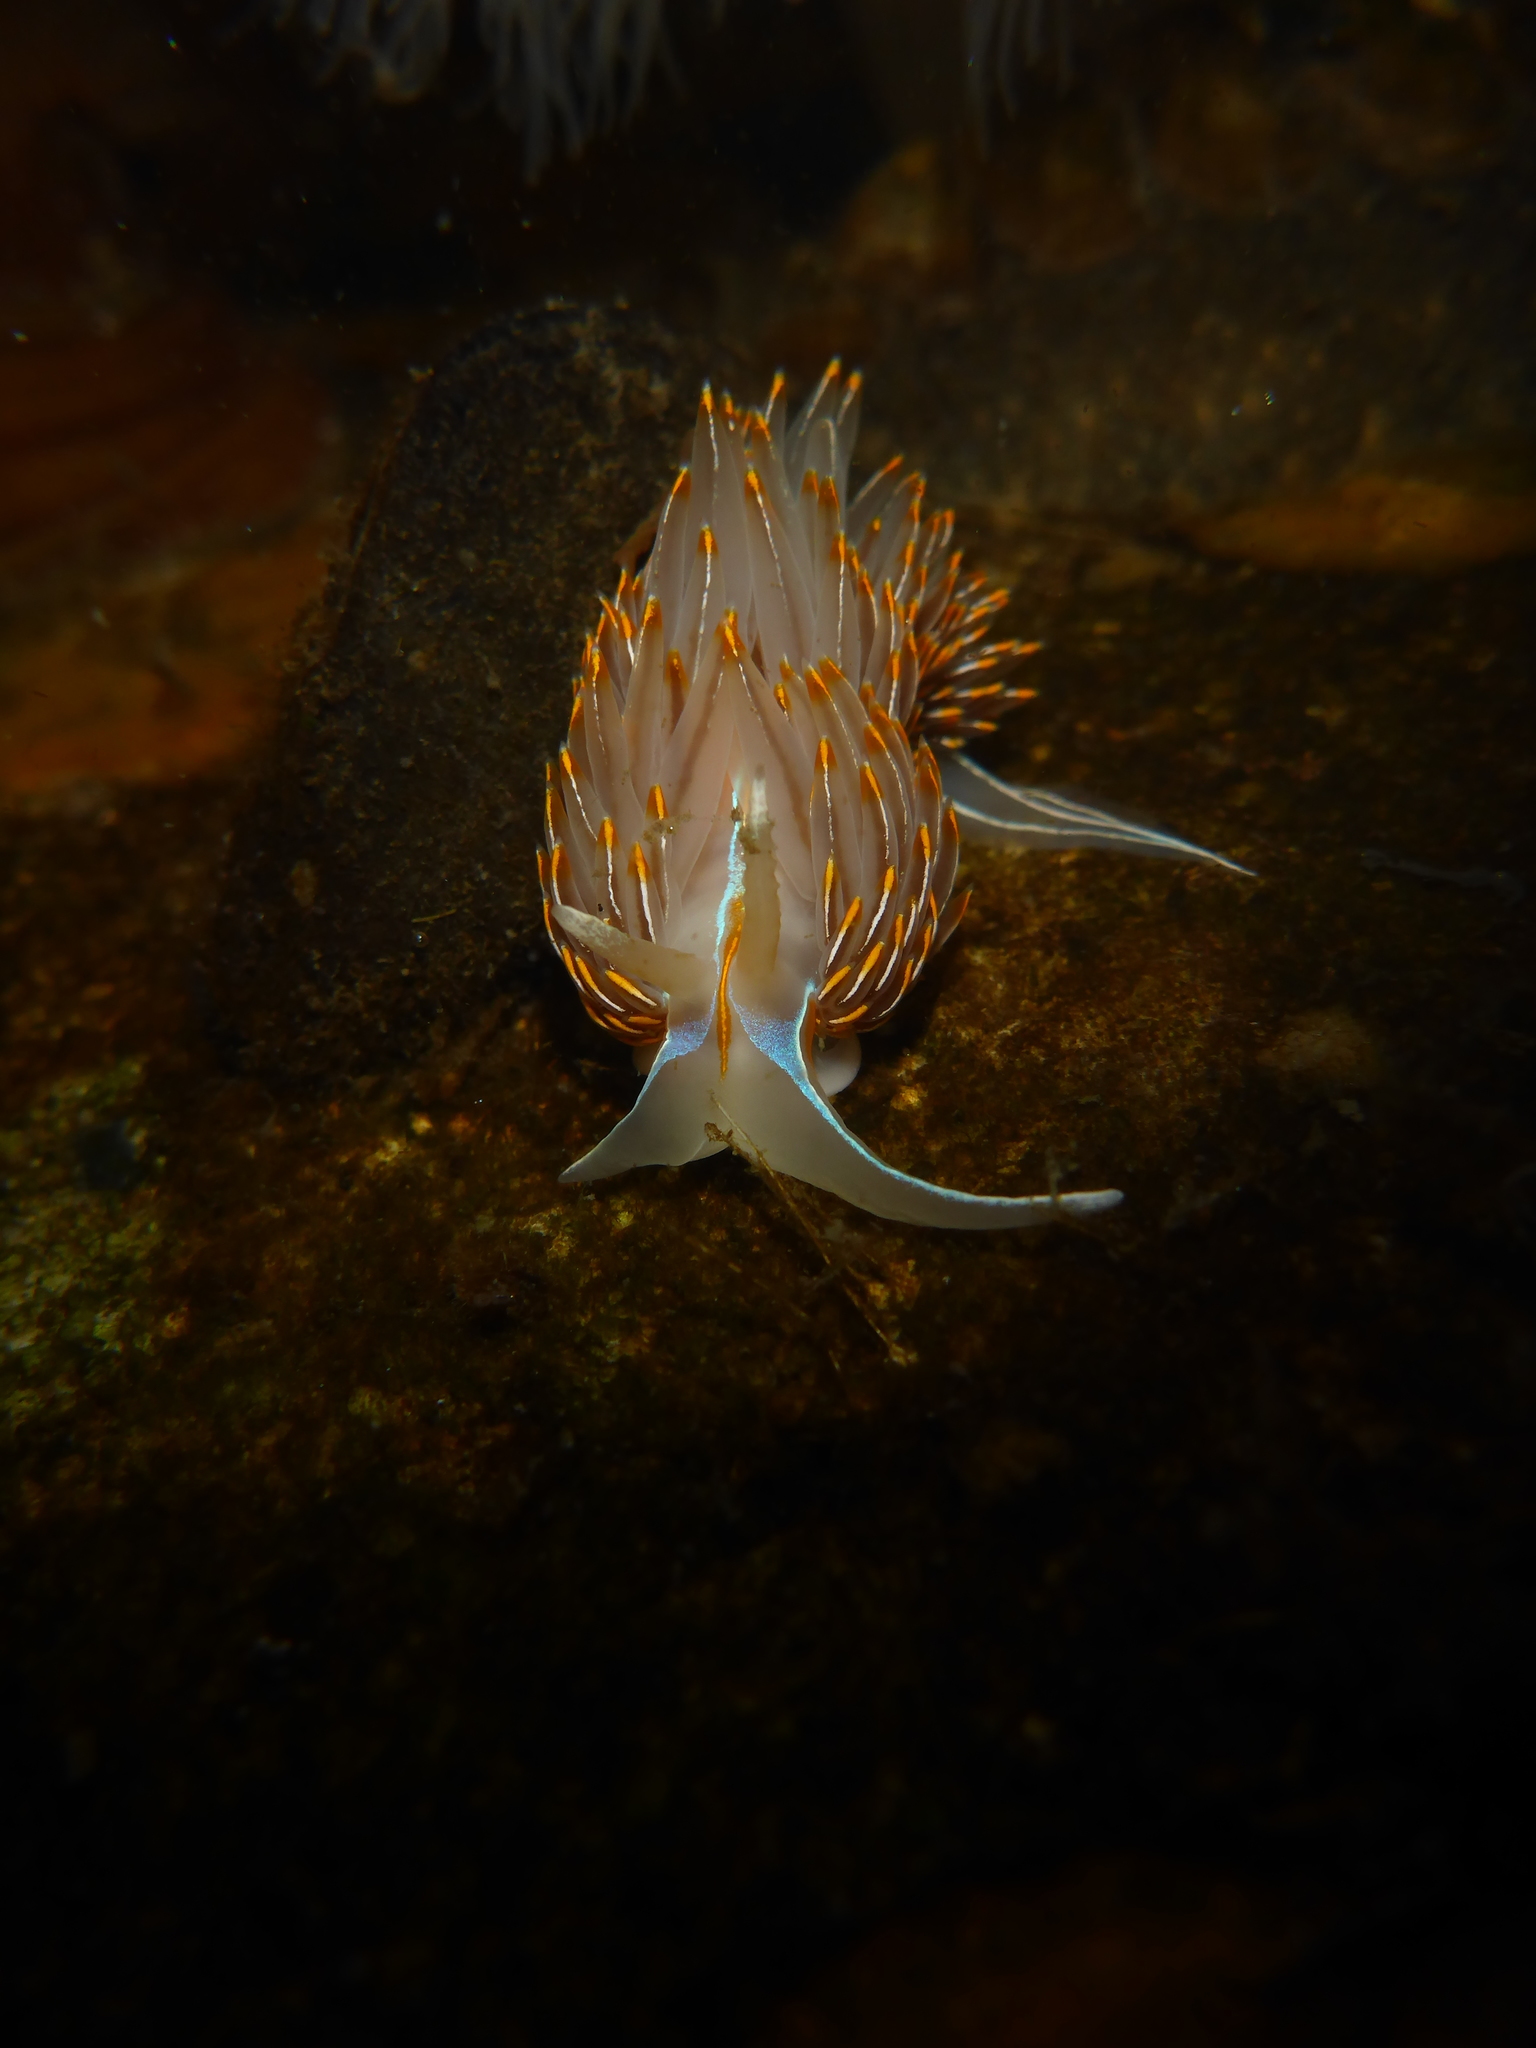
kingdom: Animalia
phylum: Mollusca
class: Gastropoda
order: Nudibranchia
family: Myrrhinidae
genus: Hermissenda
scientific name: Hermissenda crassicornis
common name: Hermissenda
